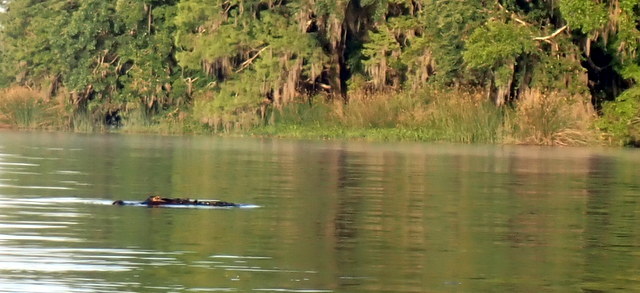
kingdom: Animalia
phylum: Chordata
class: Crocodylia
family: Alligatoridae
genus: Alligator
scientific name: Alligator mississippiensis
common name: American alligator
